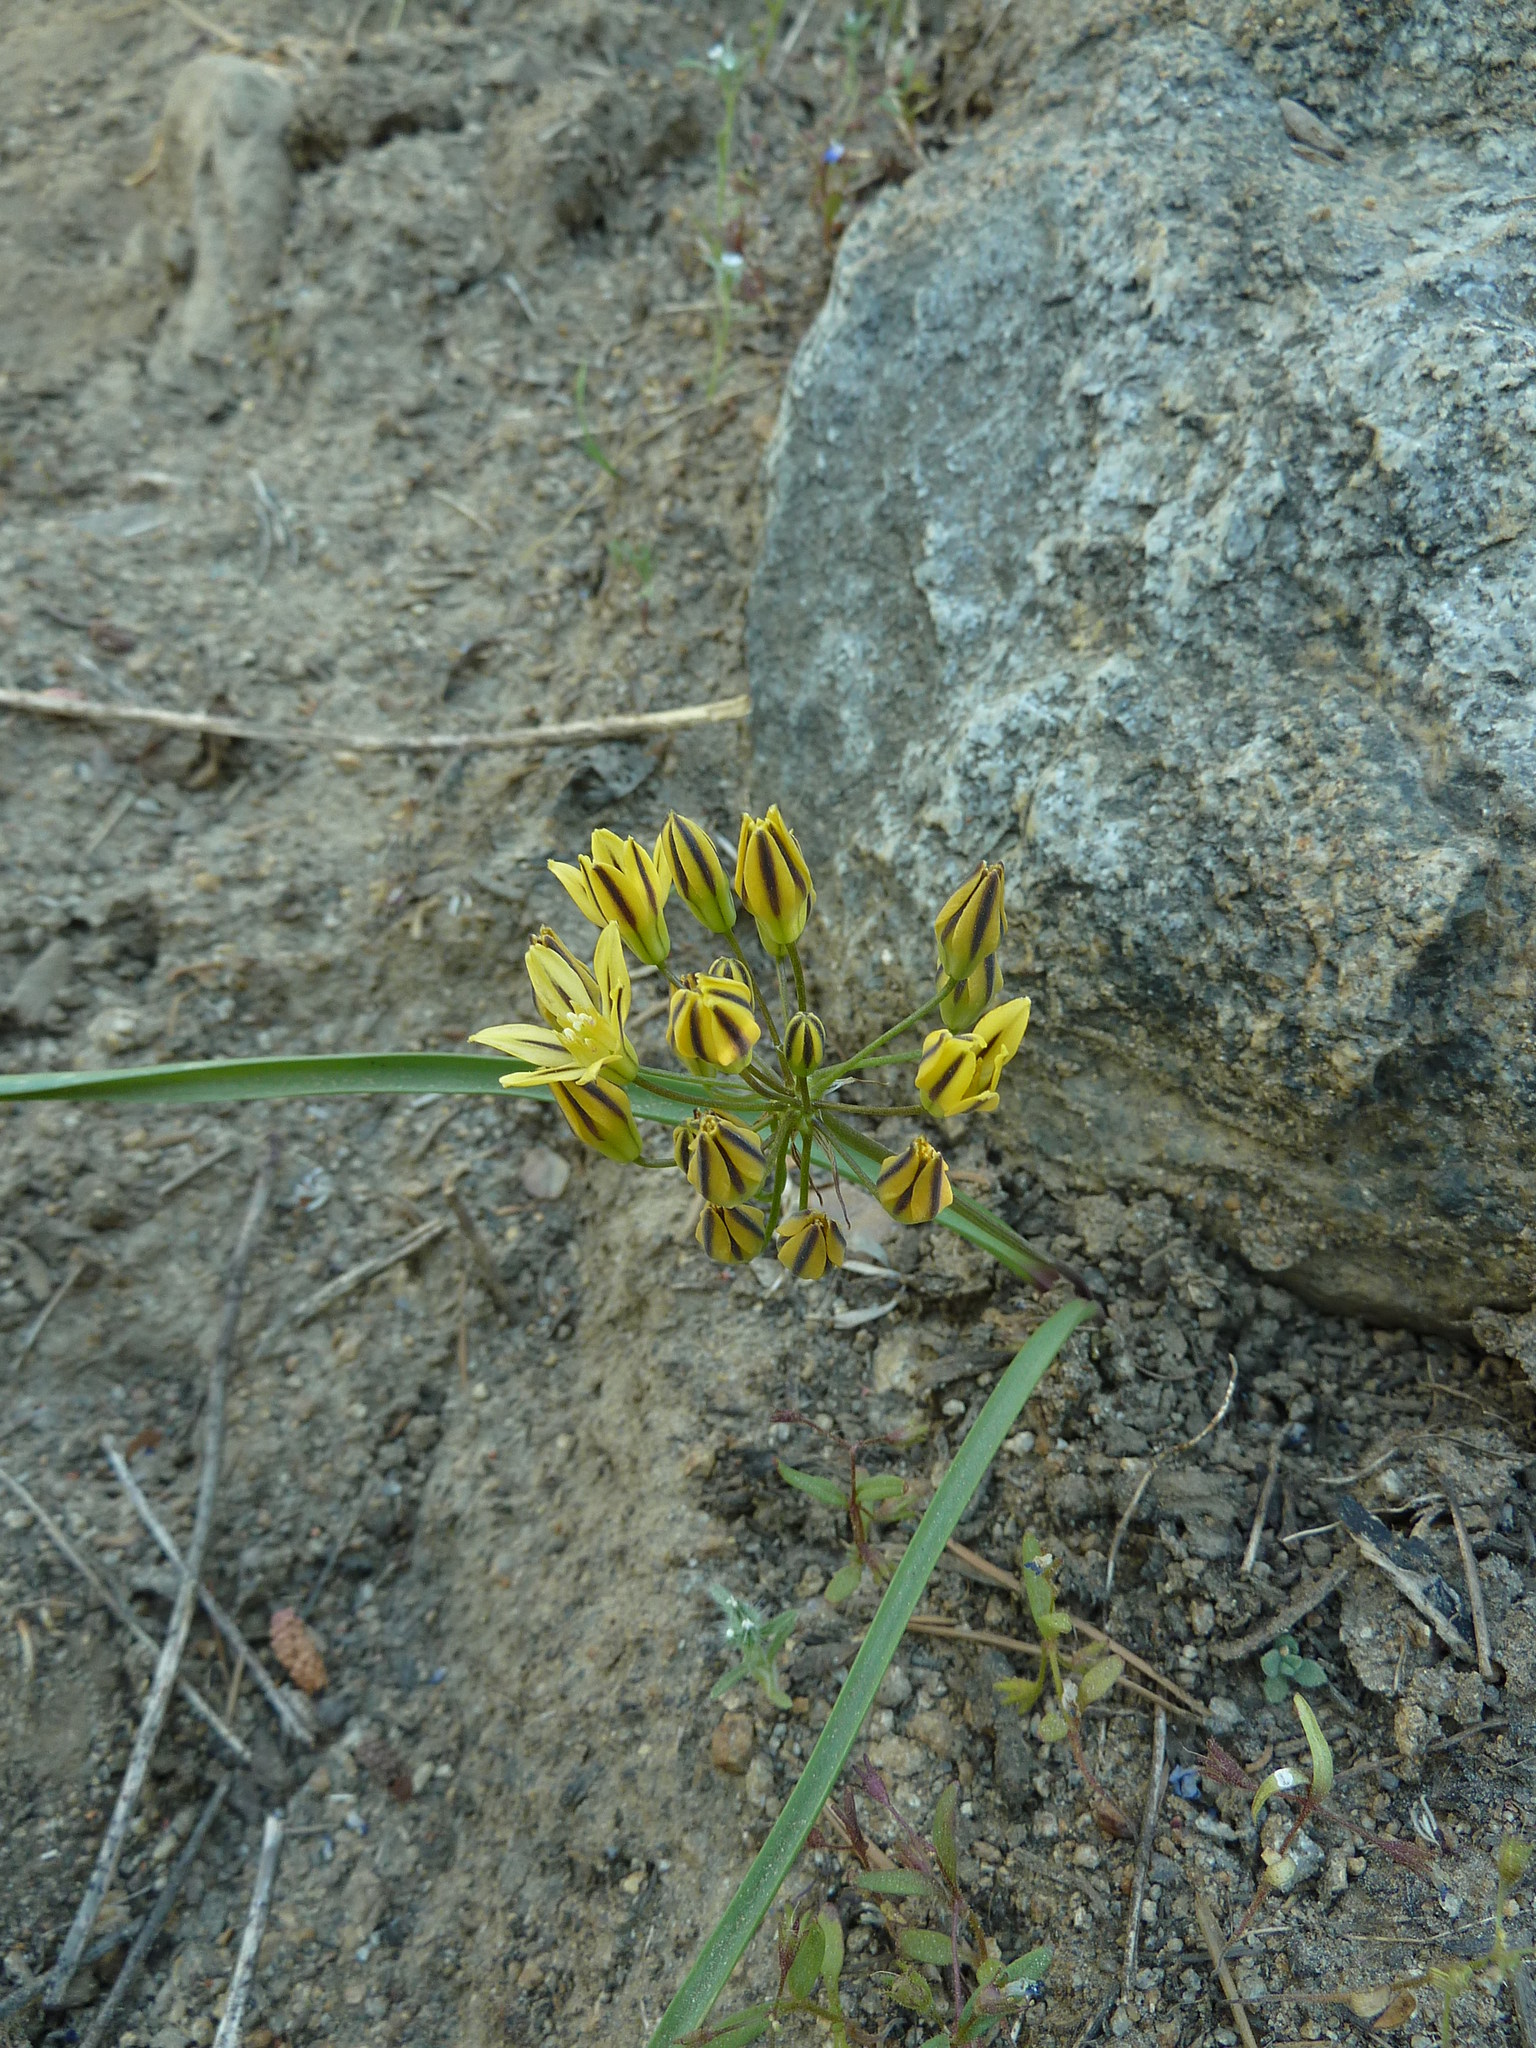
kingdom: Plantae
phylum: Tracheophyta
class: Liliopsida
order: Asparagales
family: Asparagaceae
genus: Triteleia
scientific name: Triteleia ixioides
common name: Yellow-brodiaea
